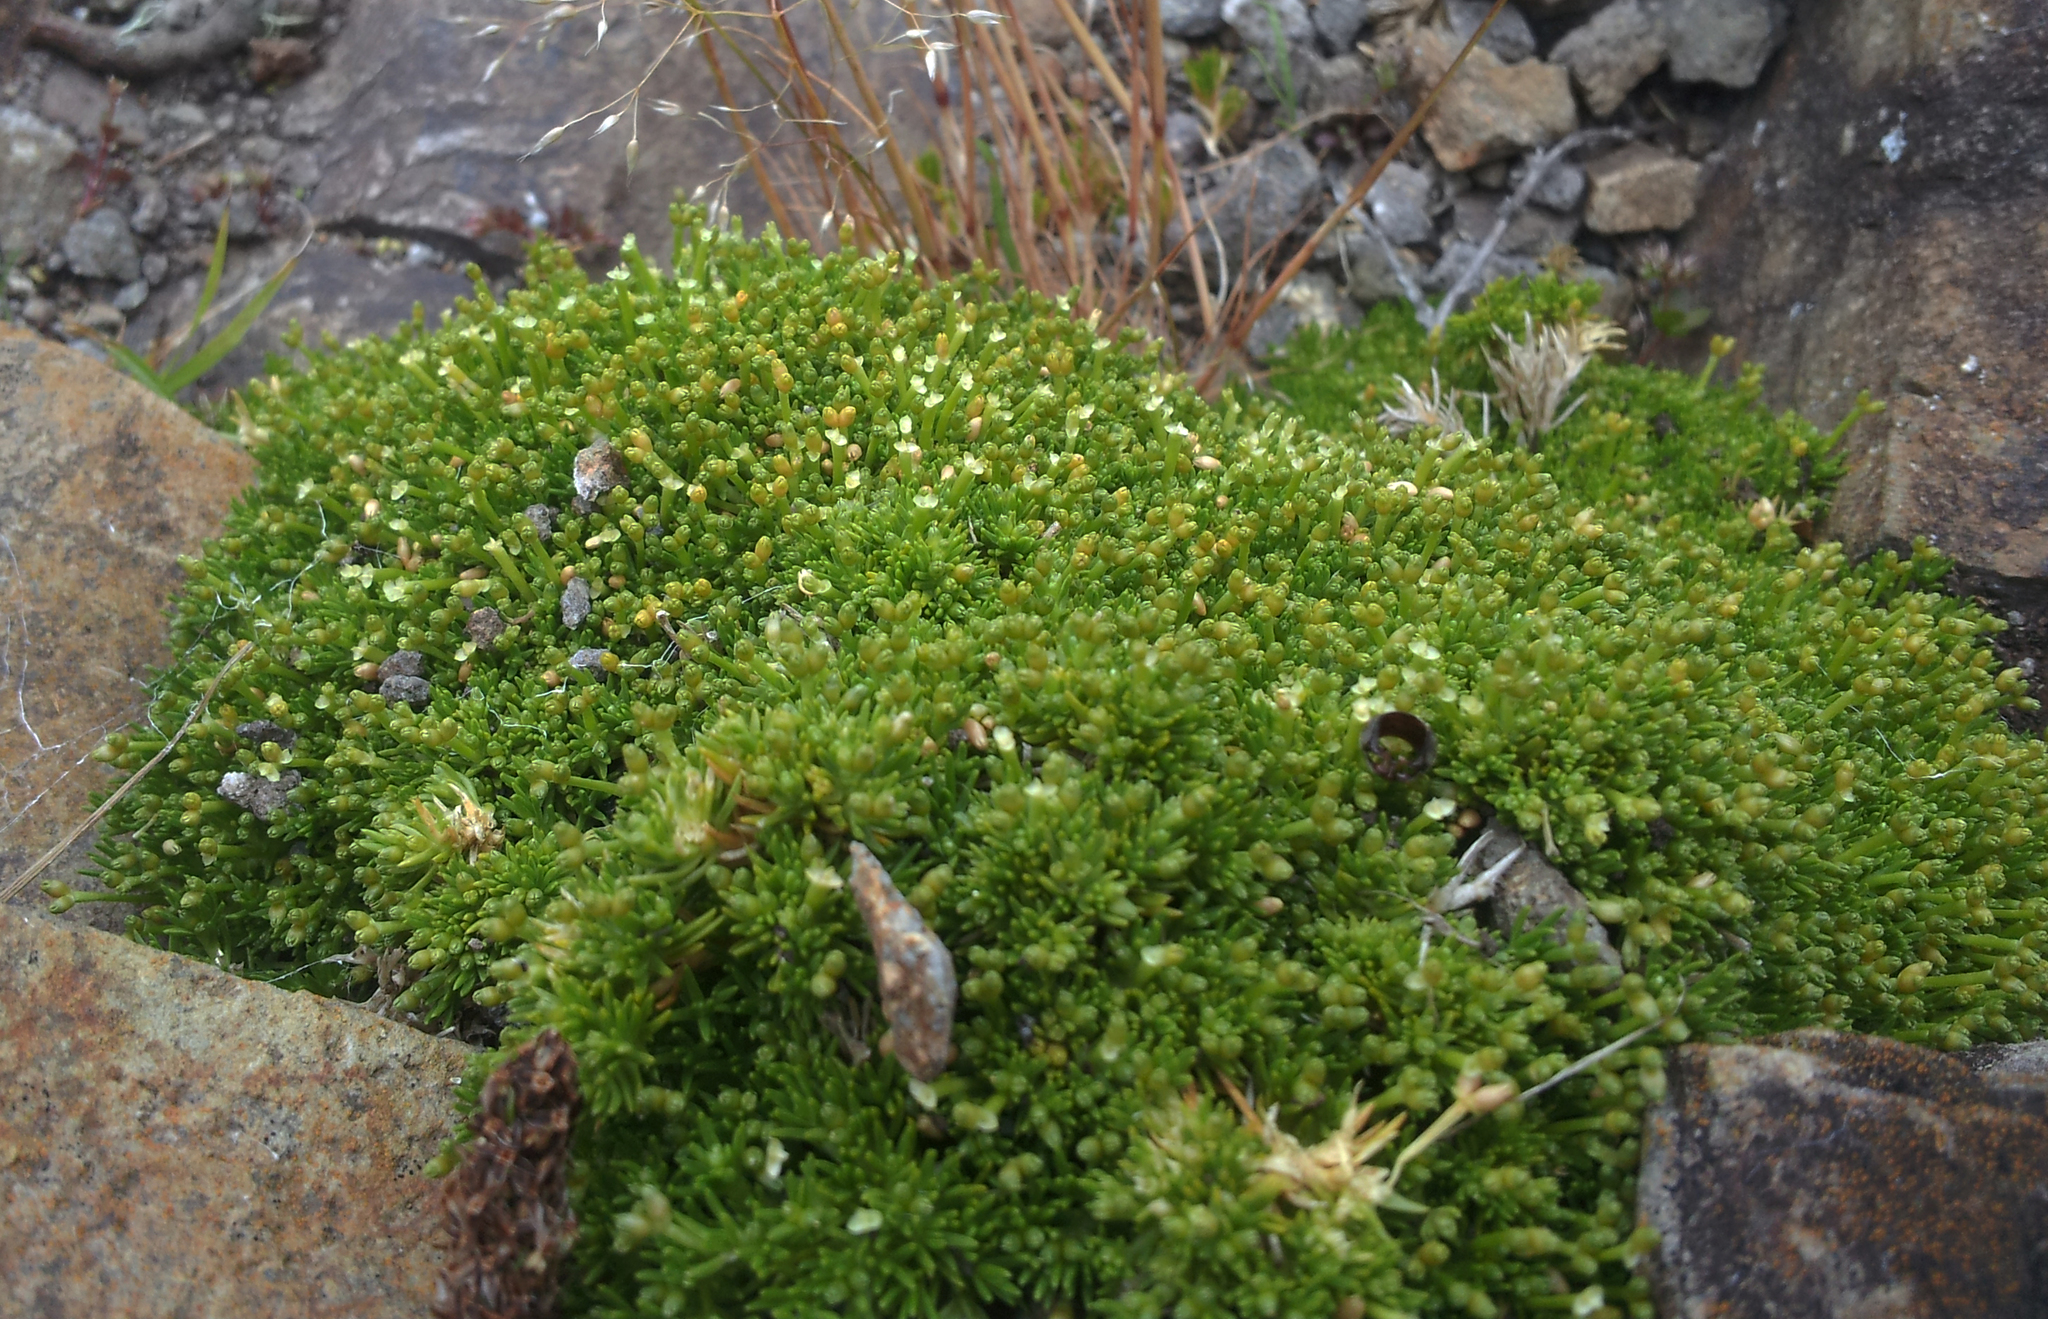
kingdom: Plantae
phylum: Tracheophyta
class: Magnoliopsida
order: Caryophyllales
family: Caryophyllaceae
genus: Scleranthus
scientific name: Scleranthus biflorus
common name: Two-flower knawel
